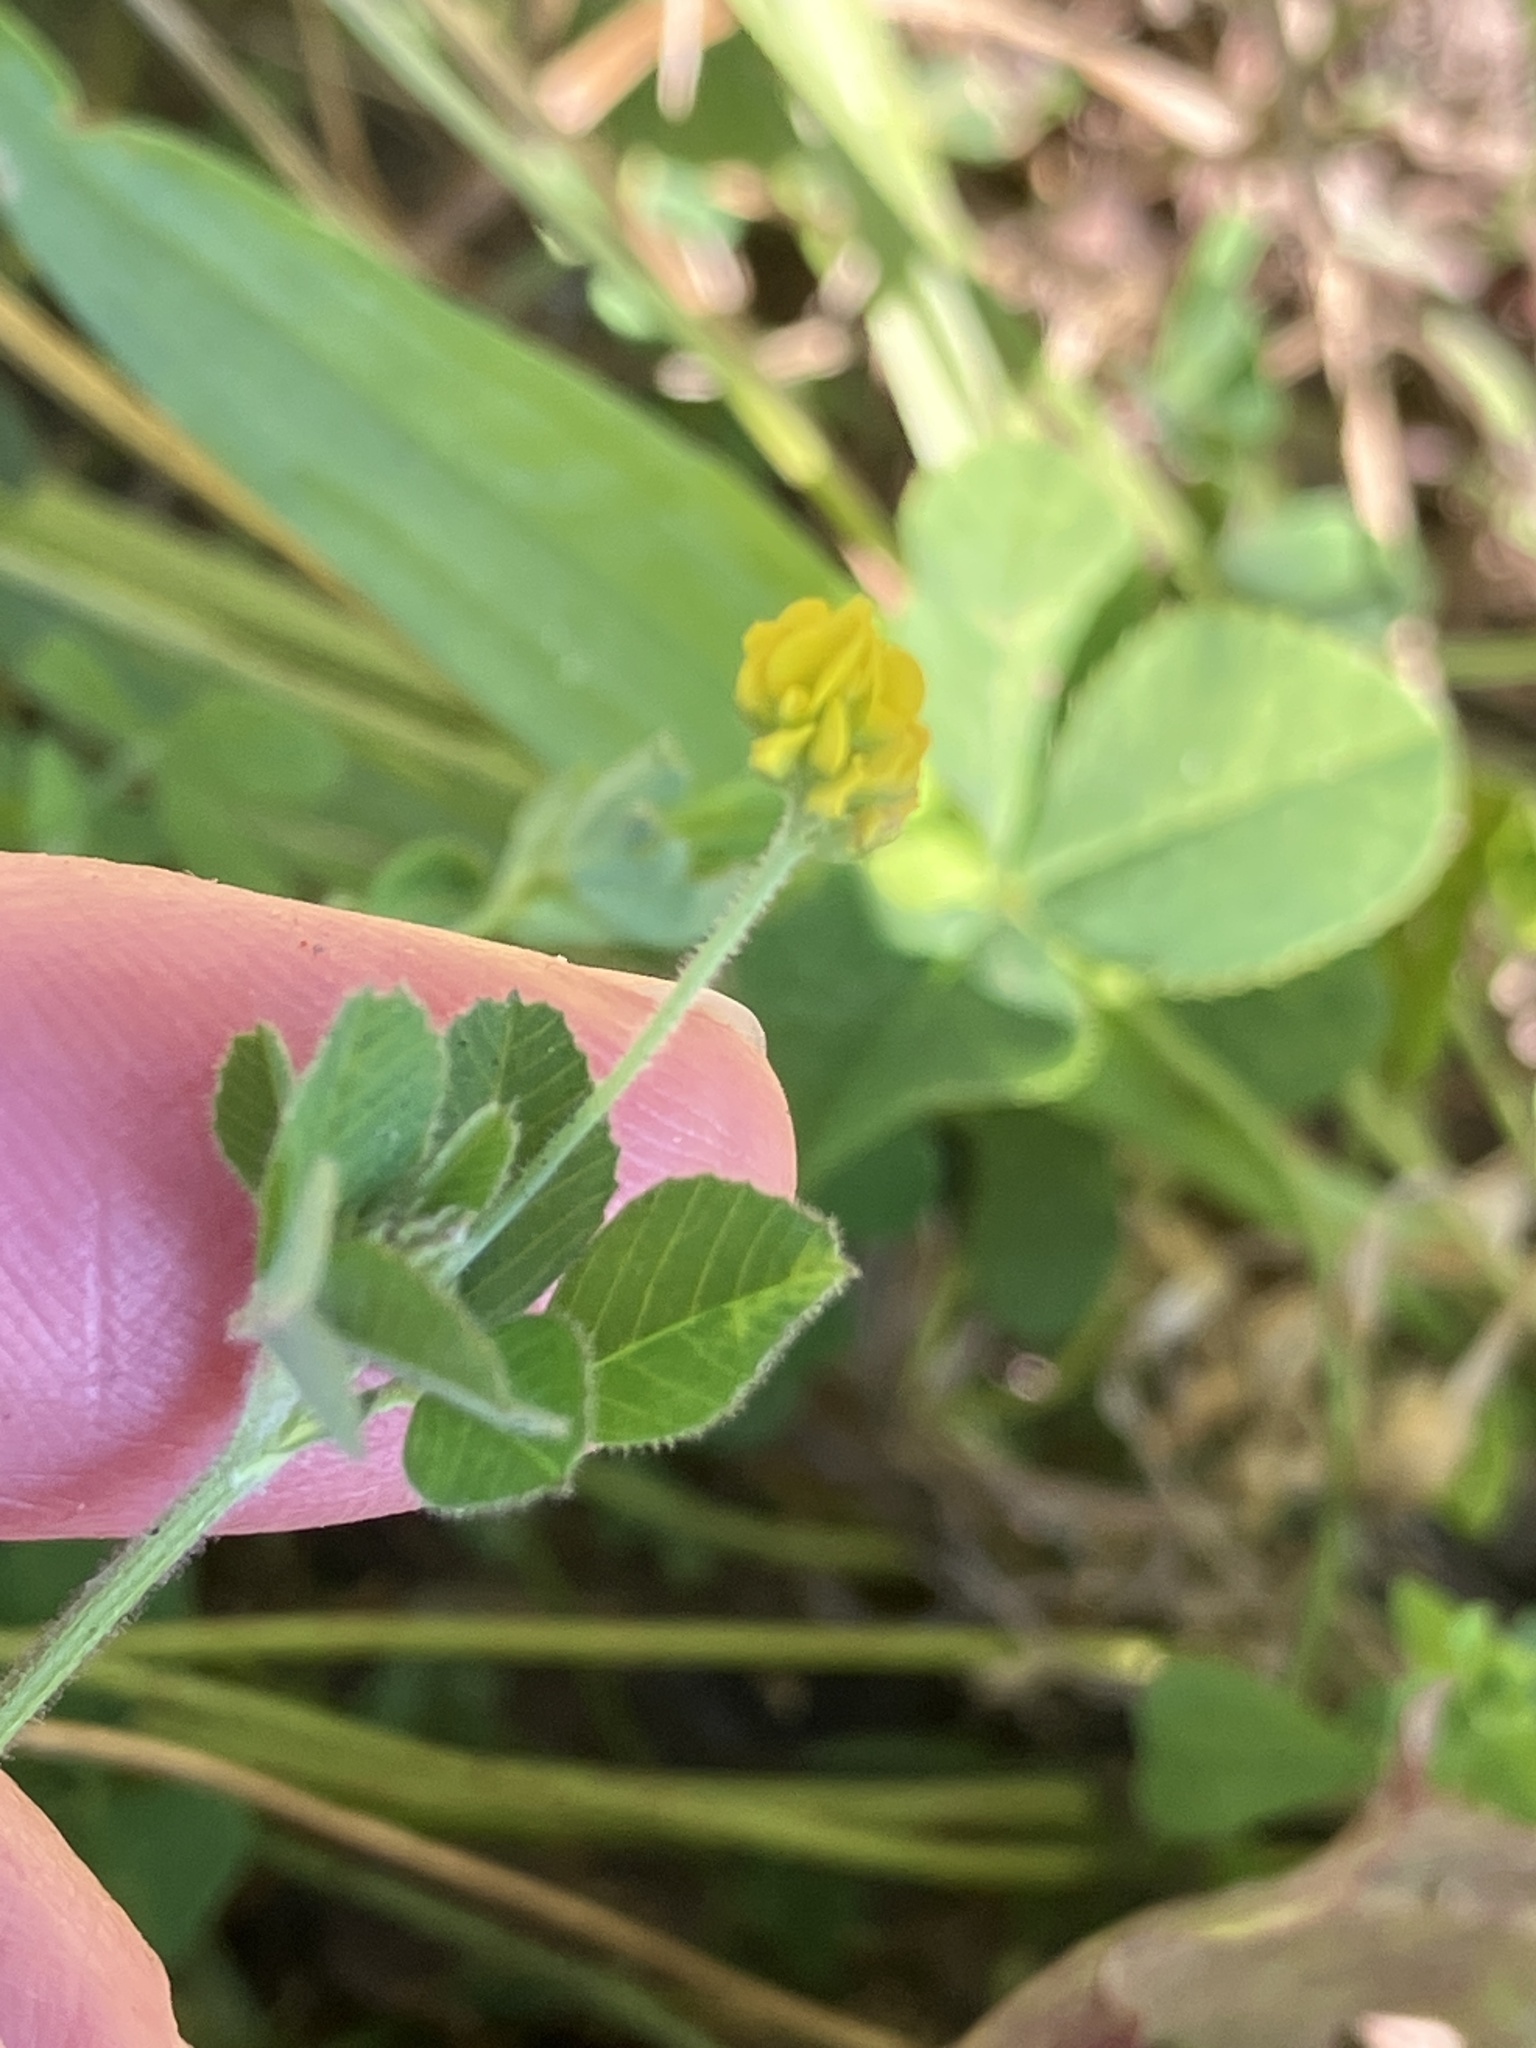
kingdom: Plantae
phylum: Tracheophyta
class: Magnoliopsida
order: Fabales
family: Fabaceae
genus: Medicago
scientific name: Medicago lupulina
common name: Black medick
